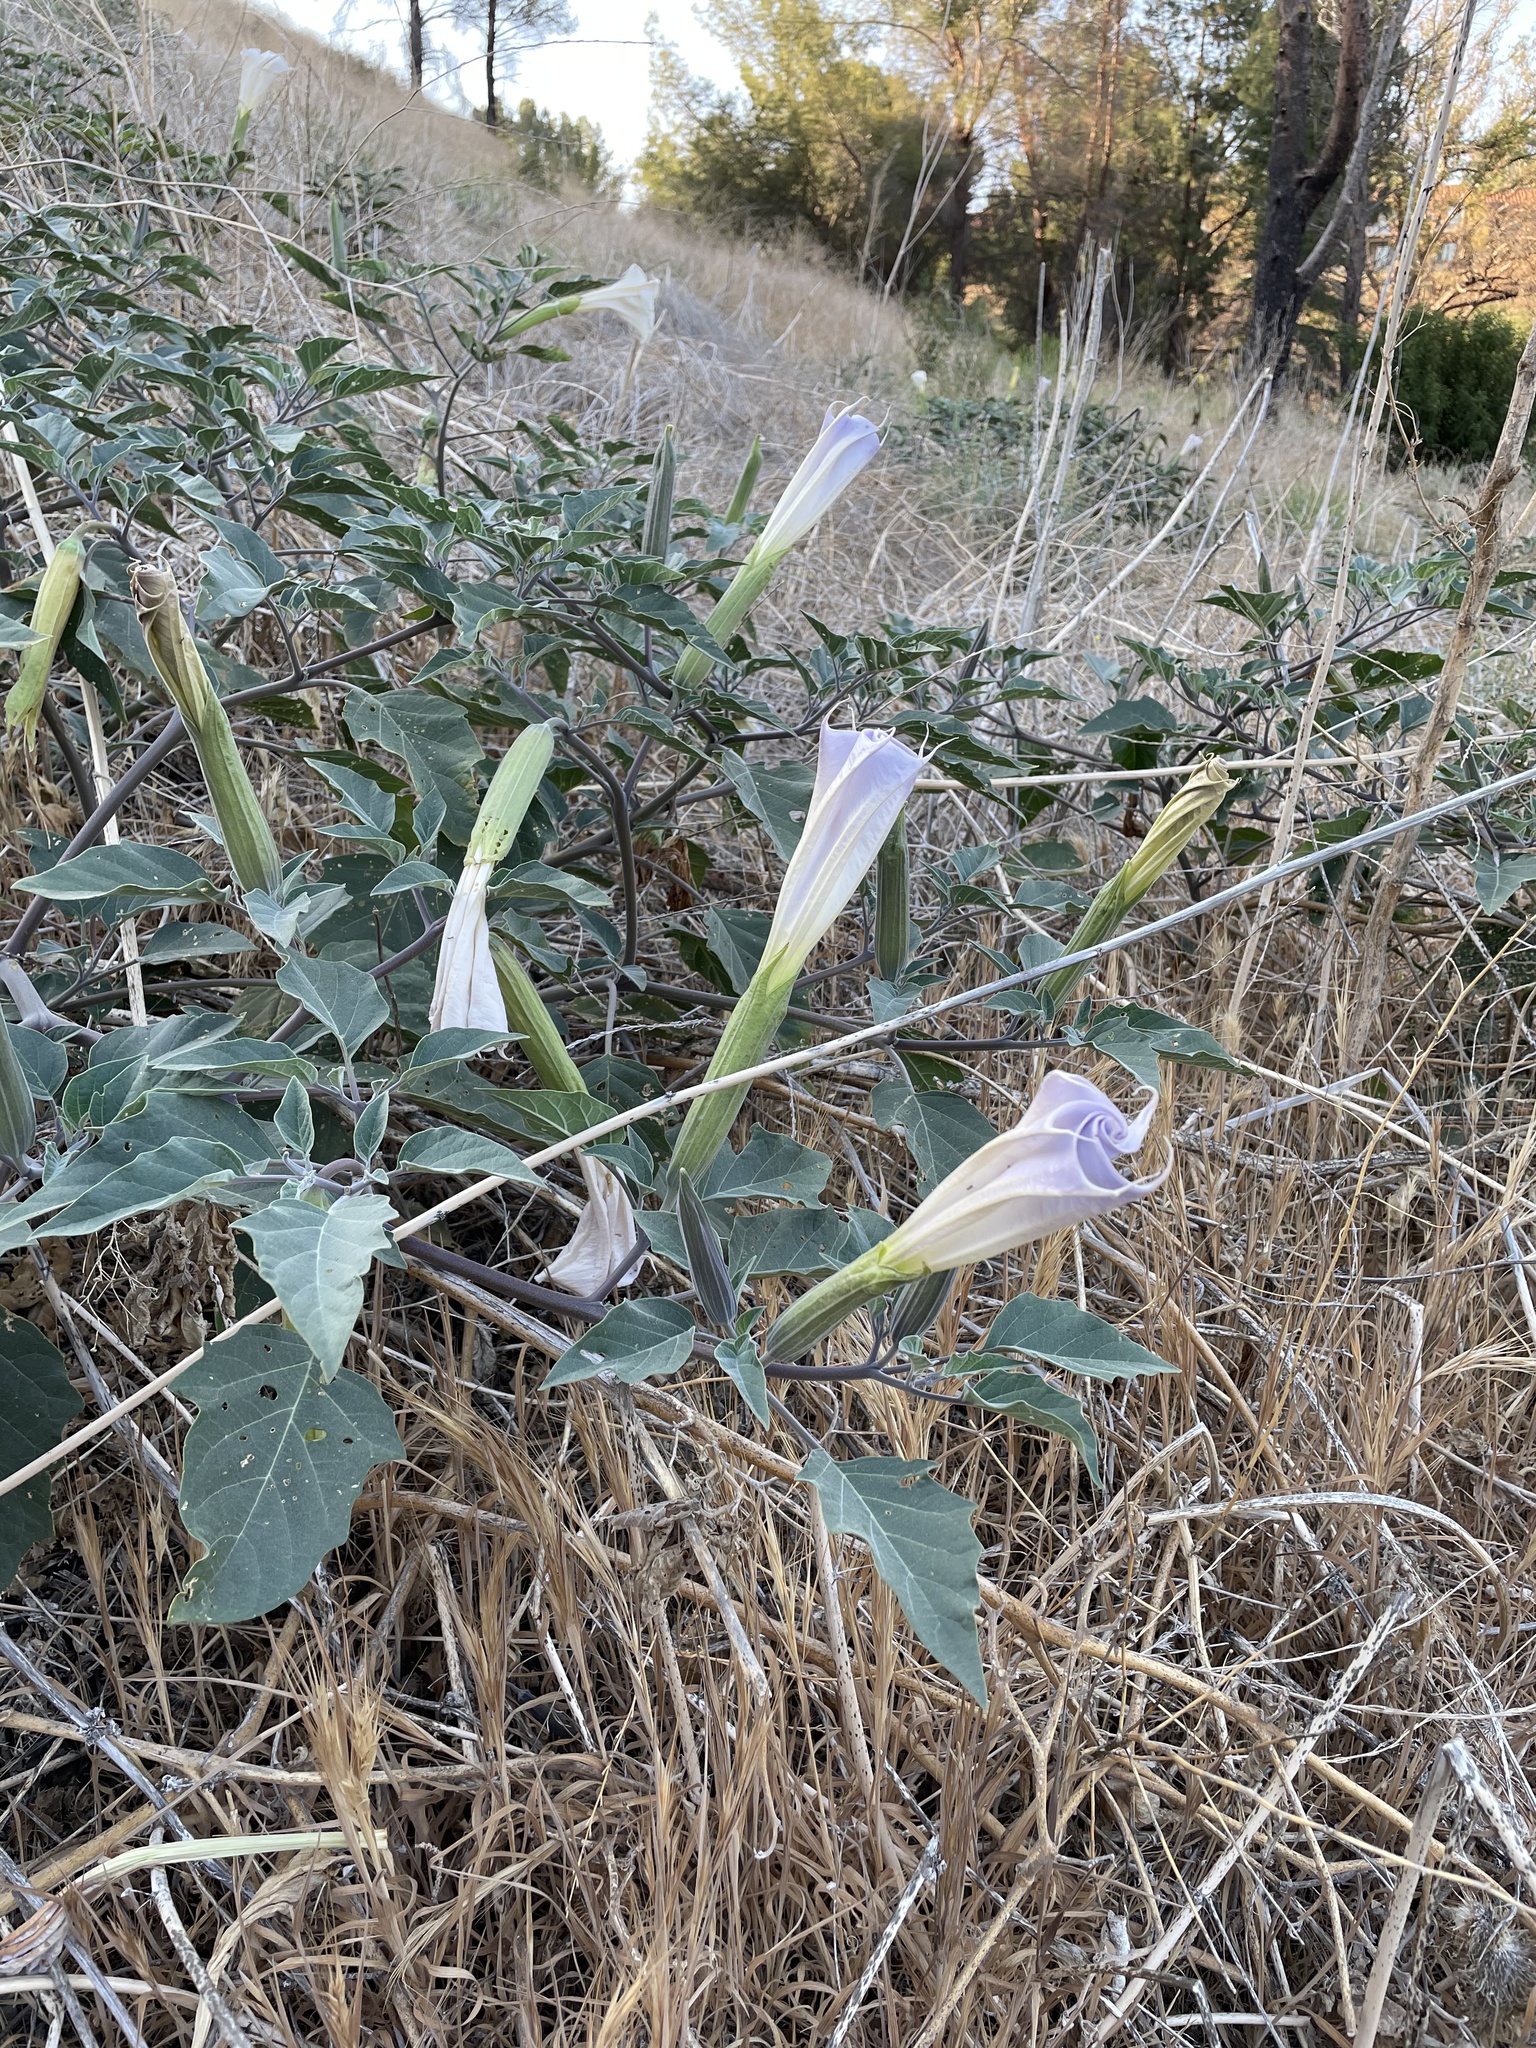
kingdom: Plantae
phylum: Tracheophyta
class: Magnoliopsida
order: Solanales
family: Solanaceae
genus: Datura
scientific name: Datura wrightii
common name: Sacred thorn-apple
